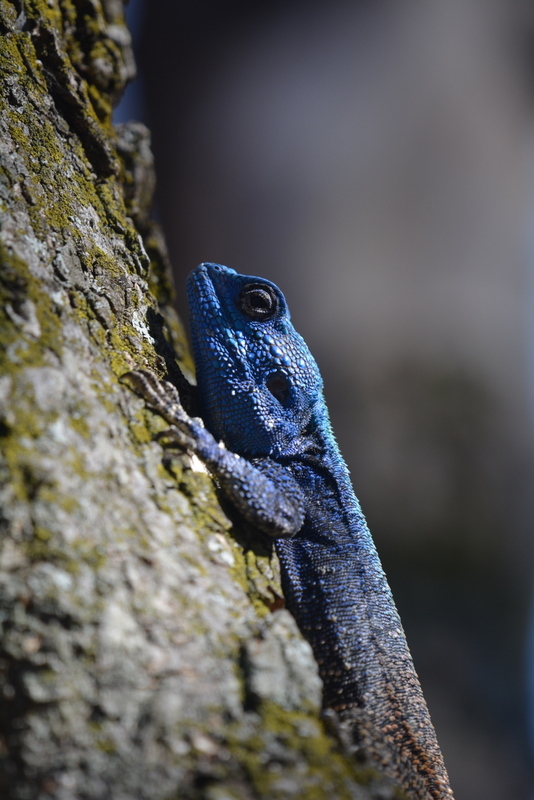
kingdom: Animalia
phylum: Chordata
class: Squamata
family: Agamidae
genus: Acanthocercus
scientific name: Acanthocercus atricollis
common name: Southern tree agama
